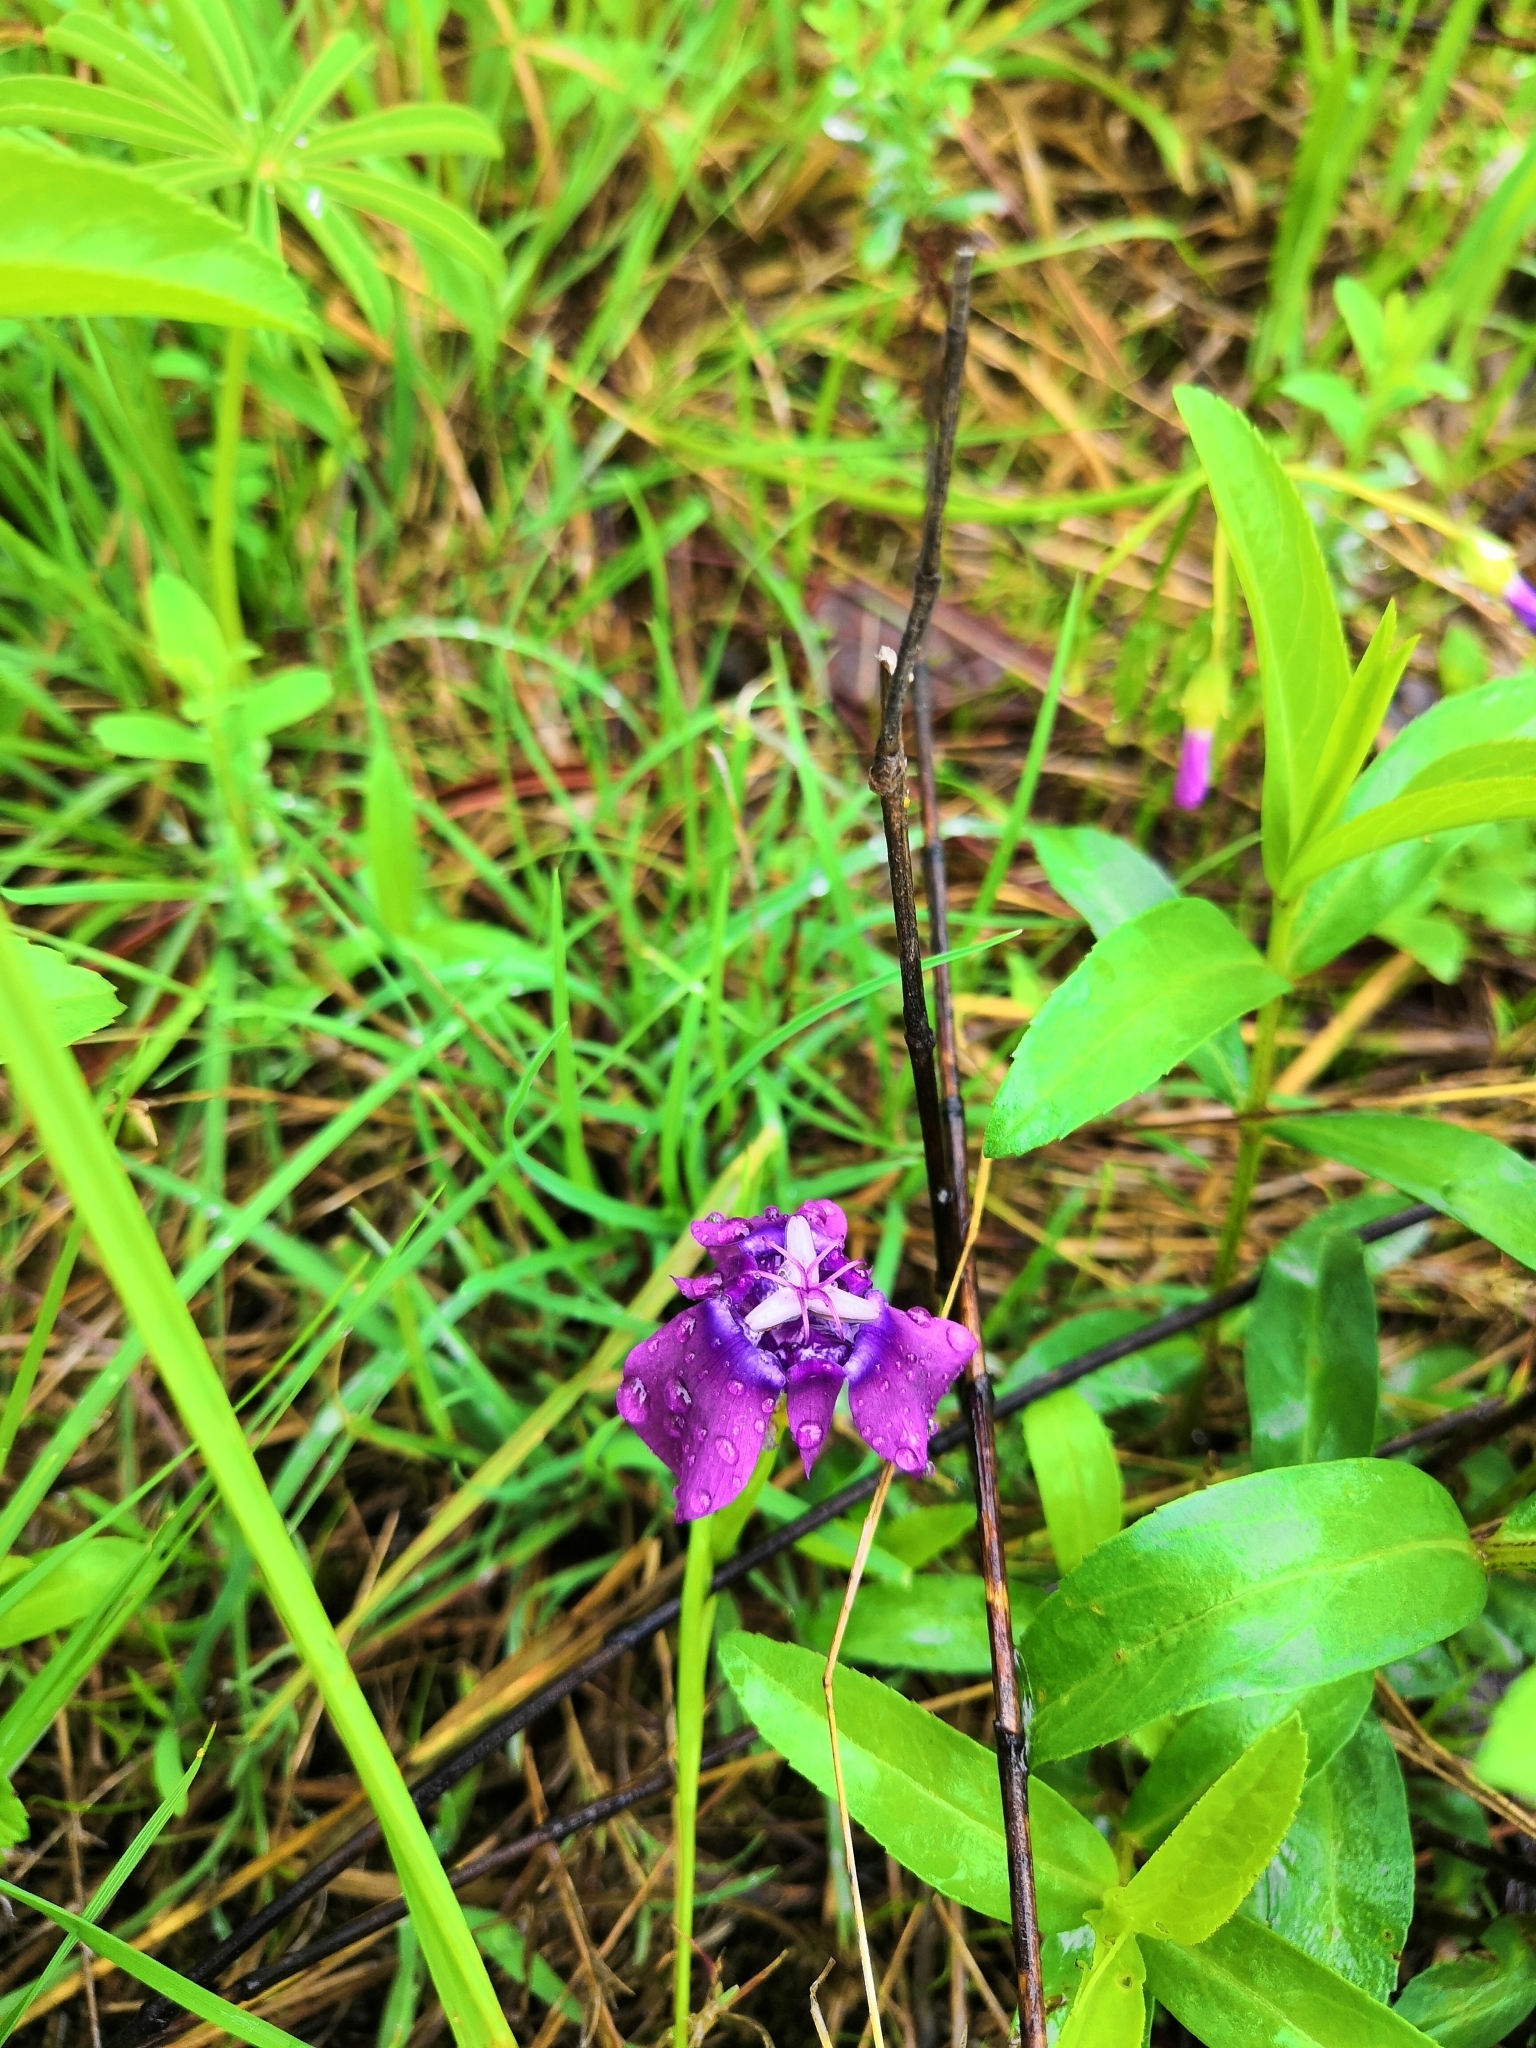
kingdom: Plantae
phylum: Tracheophyta
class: Liliopsida
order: Asparagales
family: Iridaceae
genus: Tigridia
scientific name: Tigridia augusta
